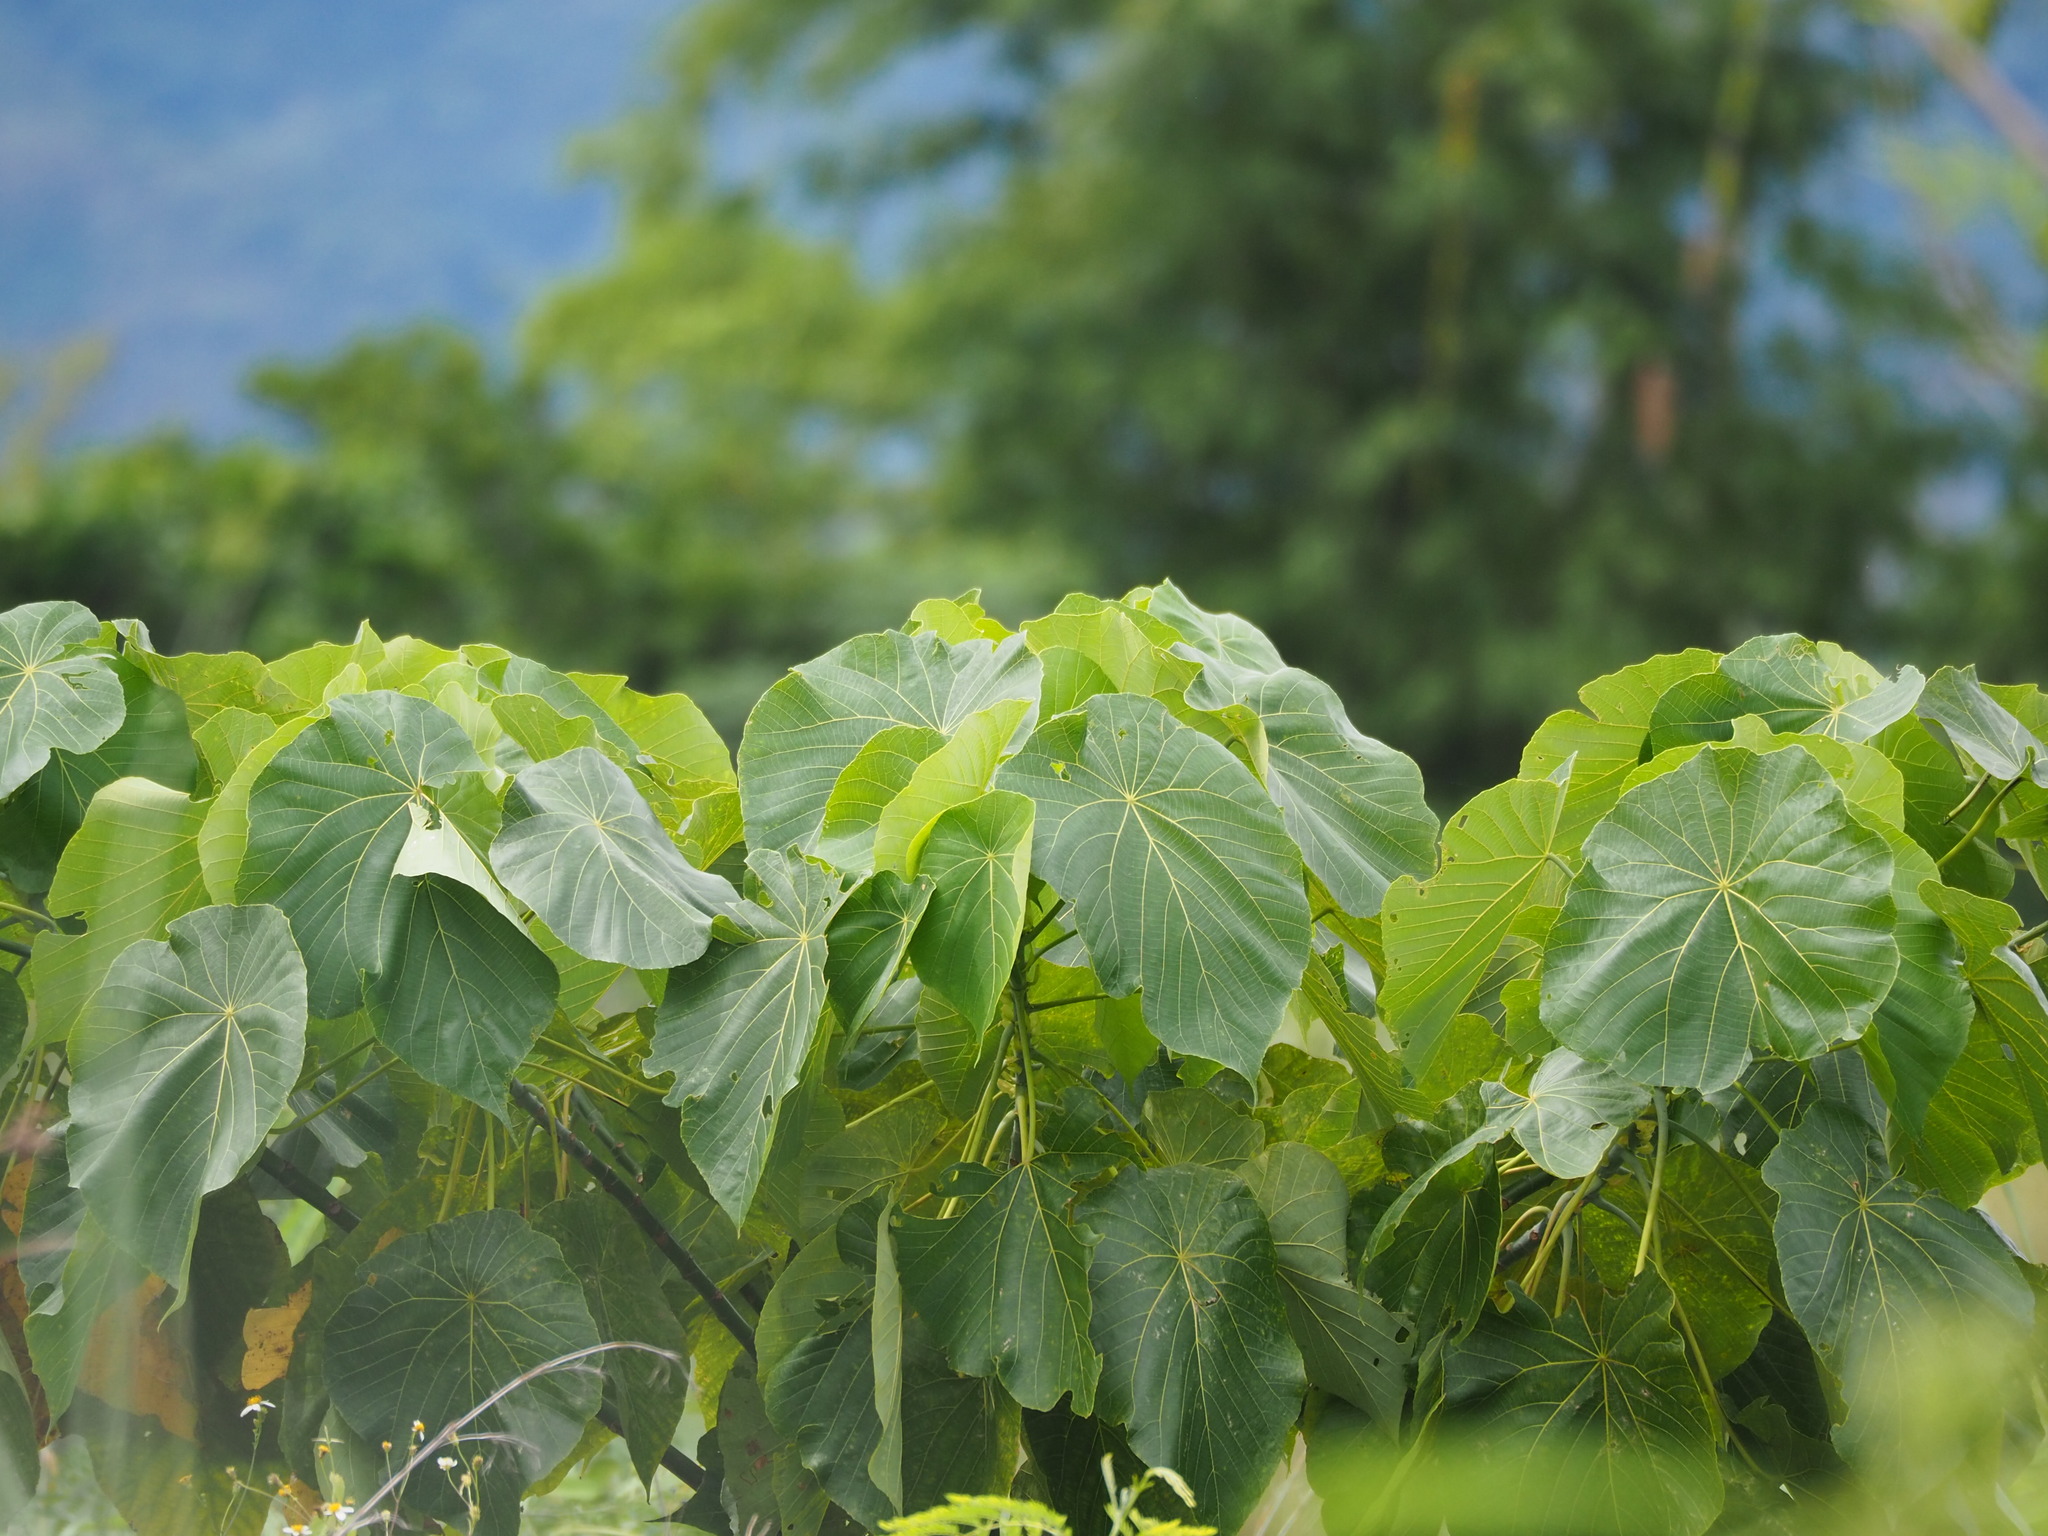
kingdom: Plantae
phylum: Tracheophyta
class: Magnoliopsida
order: Malpighiales
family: Euphorbiaceae
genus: Macaranga
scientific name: Macaranga tanarius
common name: Parasol leaf tree
